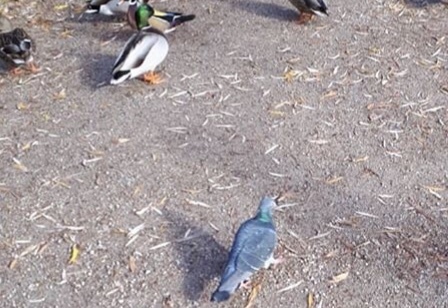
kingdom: Animalia
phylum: Chordata
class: Aves
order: Columbiformes
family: Columbidae
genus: Columba
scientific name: Columba livia
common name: Rock pigeon
